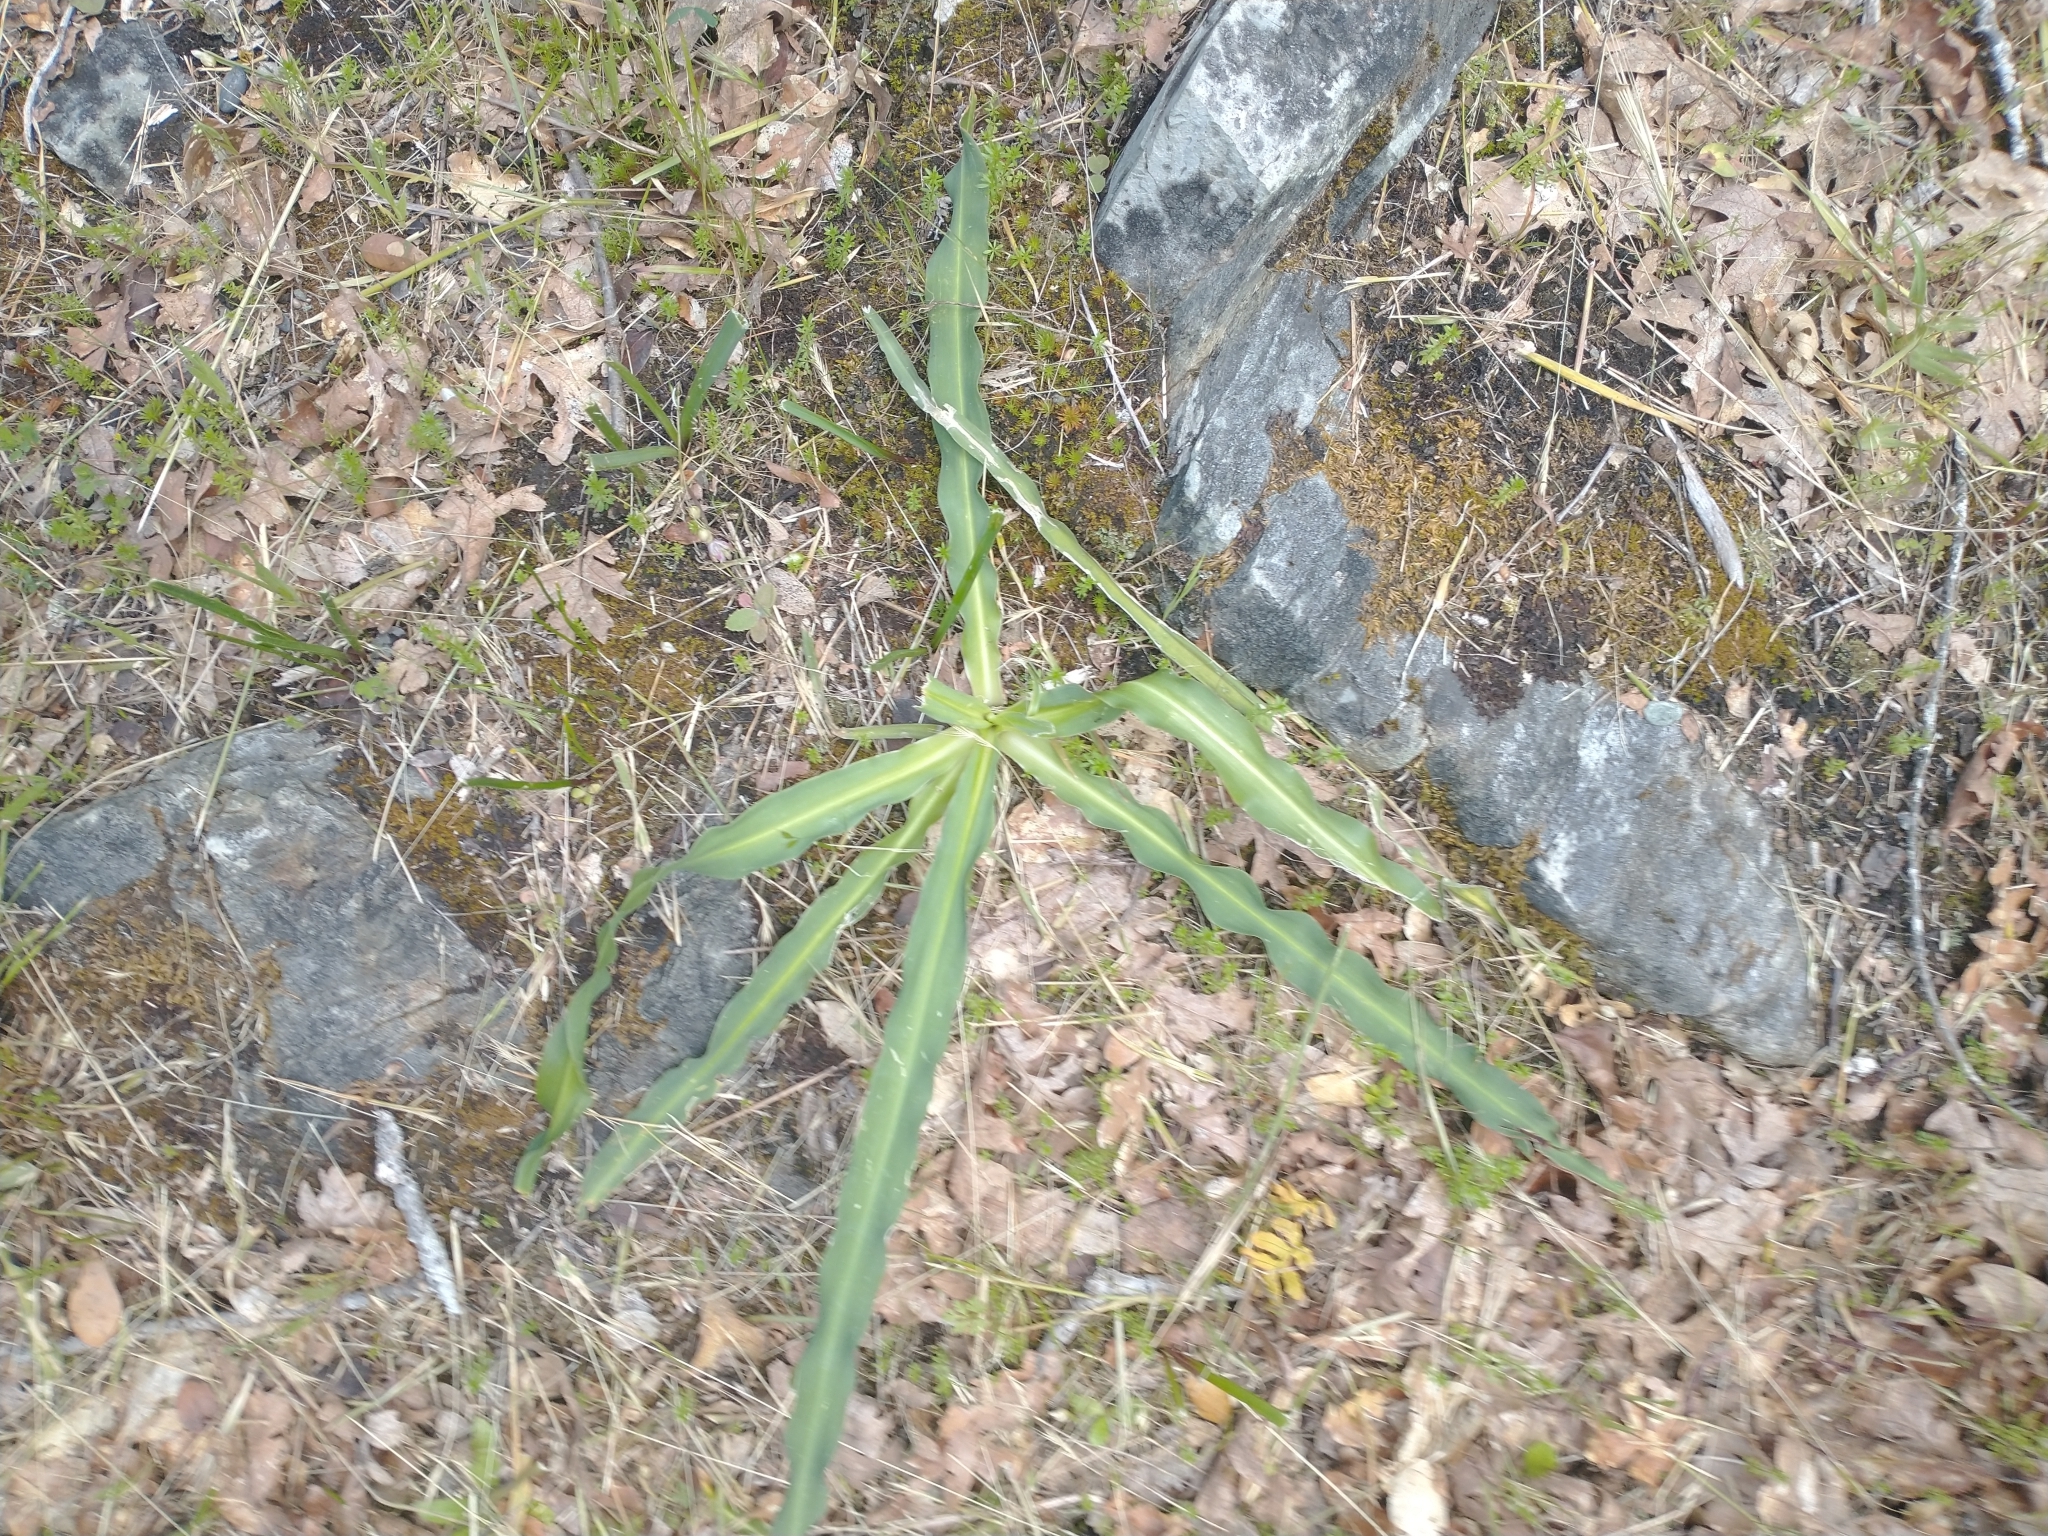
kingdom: Plantae
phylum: Tracheophyta
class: Liliopsida
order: Asparagales
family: Asparagaceae
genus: Chlorogalum
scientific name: Chlorogalum pomeridianum
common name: Amole
